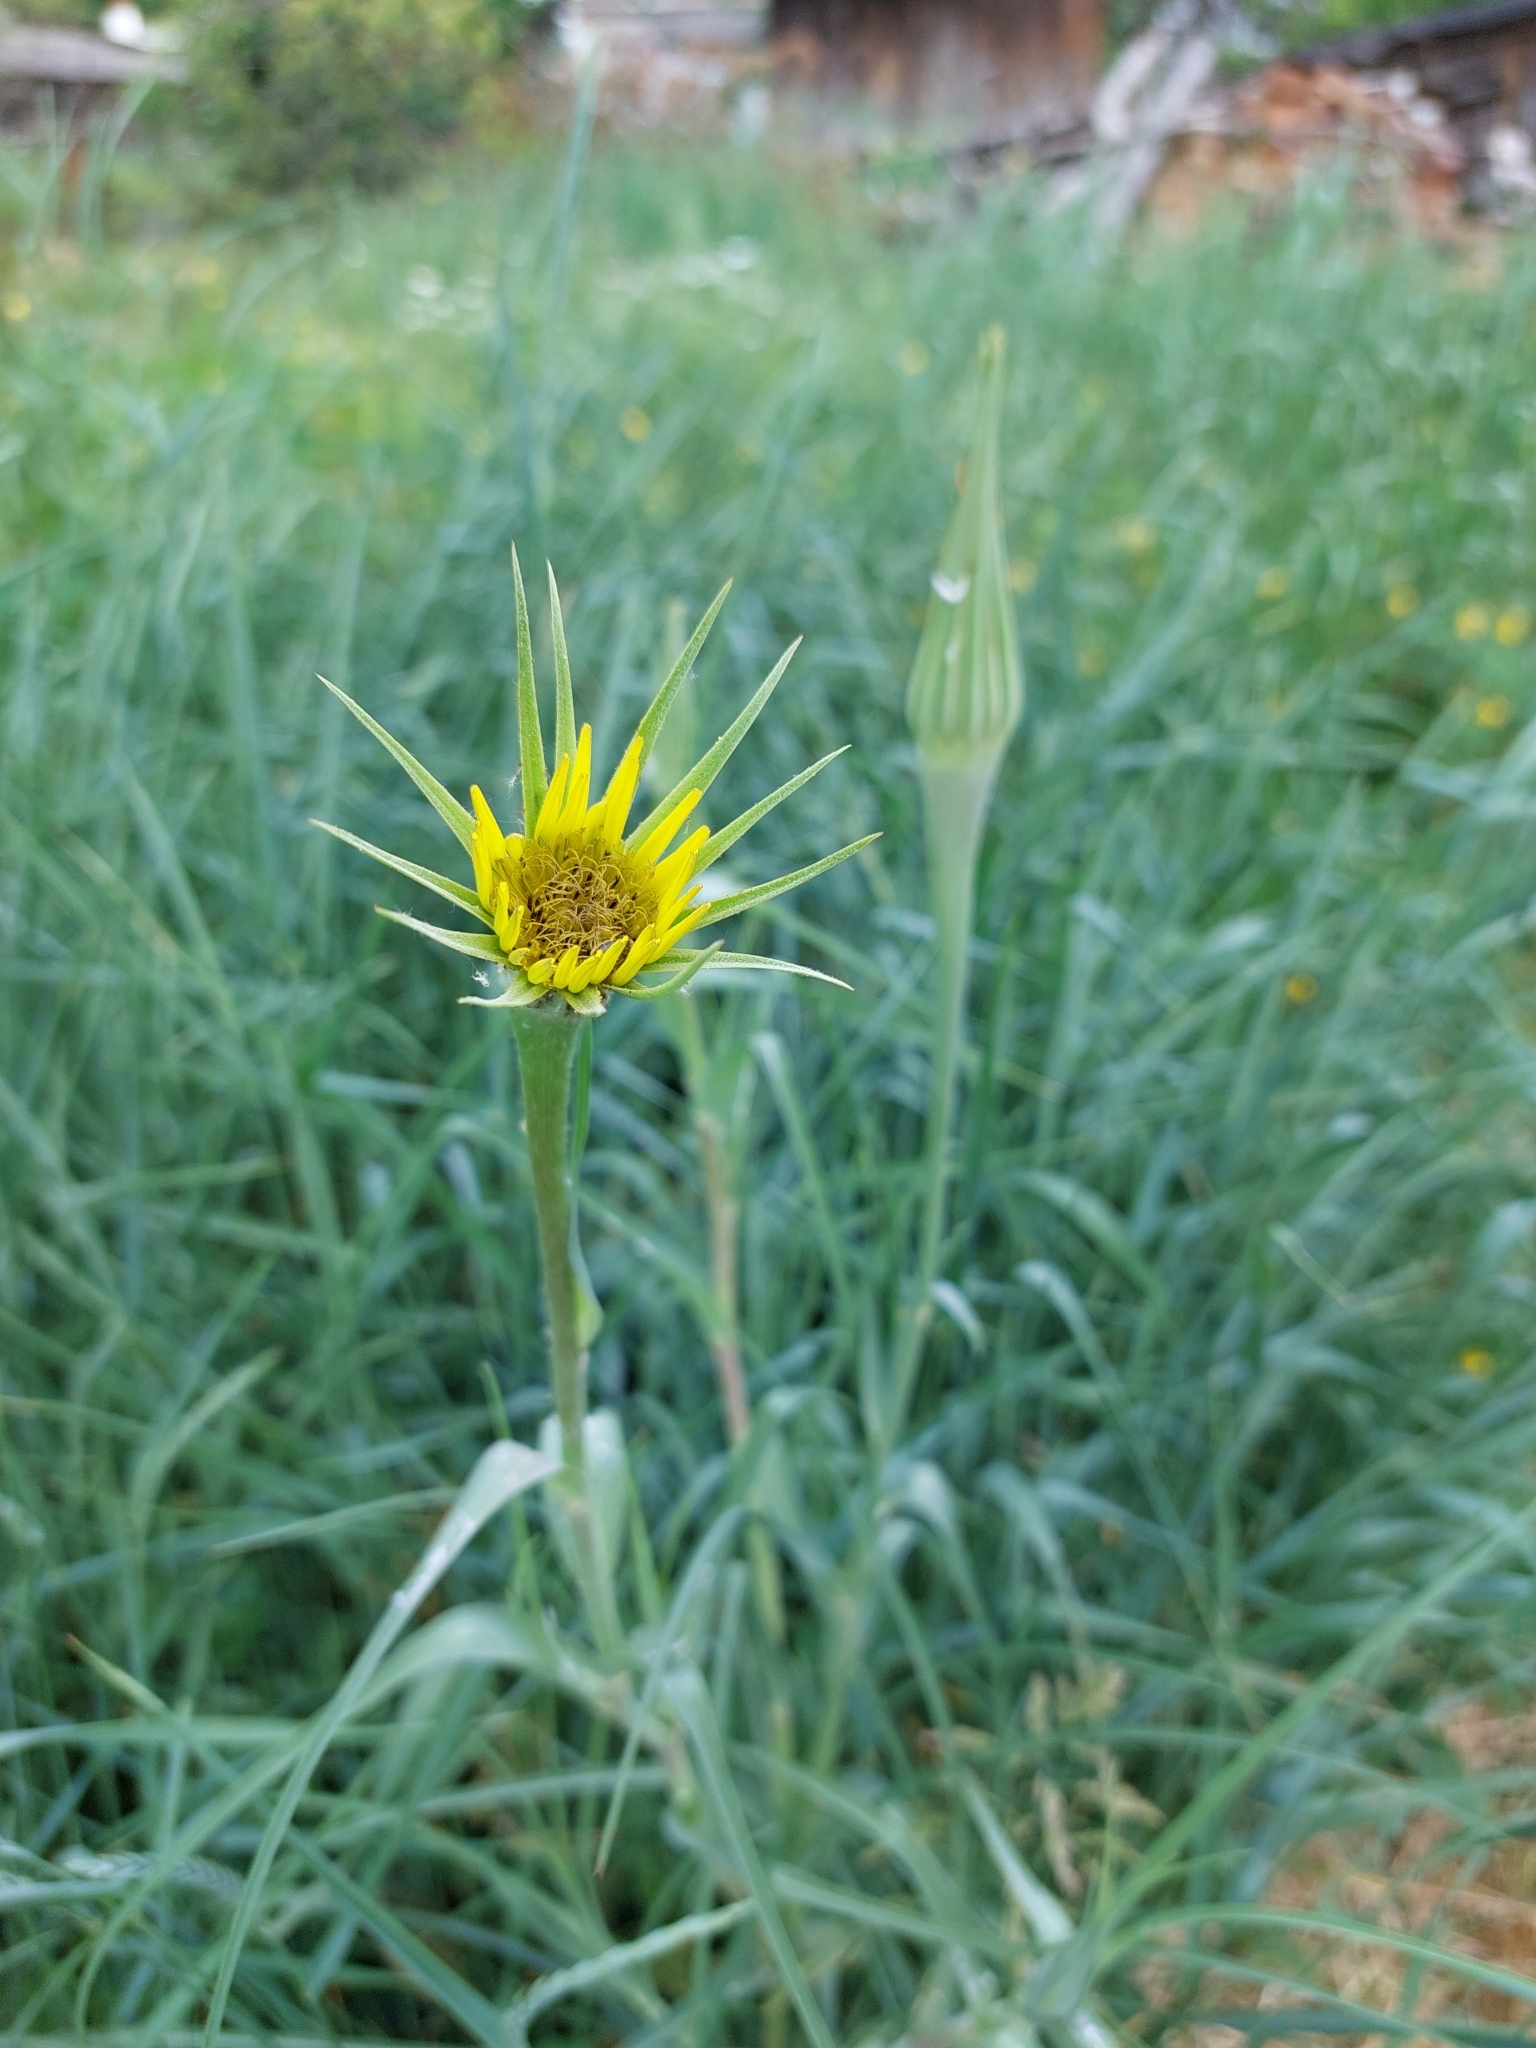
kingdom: Plantae
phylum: Tracheophyta
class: Magnoliopsida
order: Asterales
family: Asteraceae
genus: Tragopogon
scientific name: Tragopogon dubius
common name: Yellow salsify
